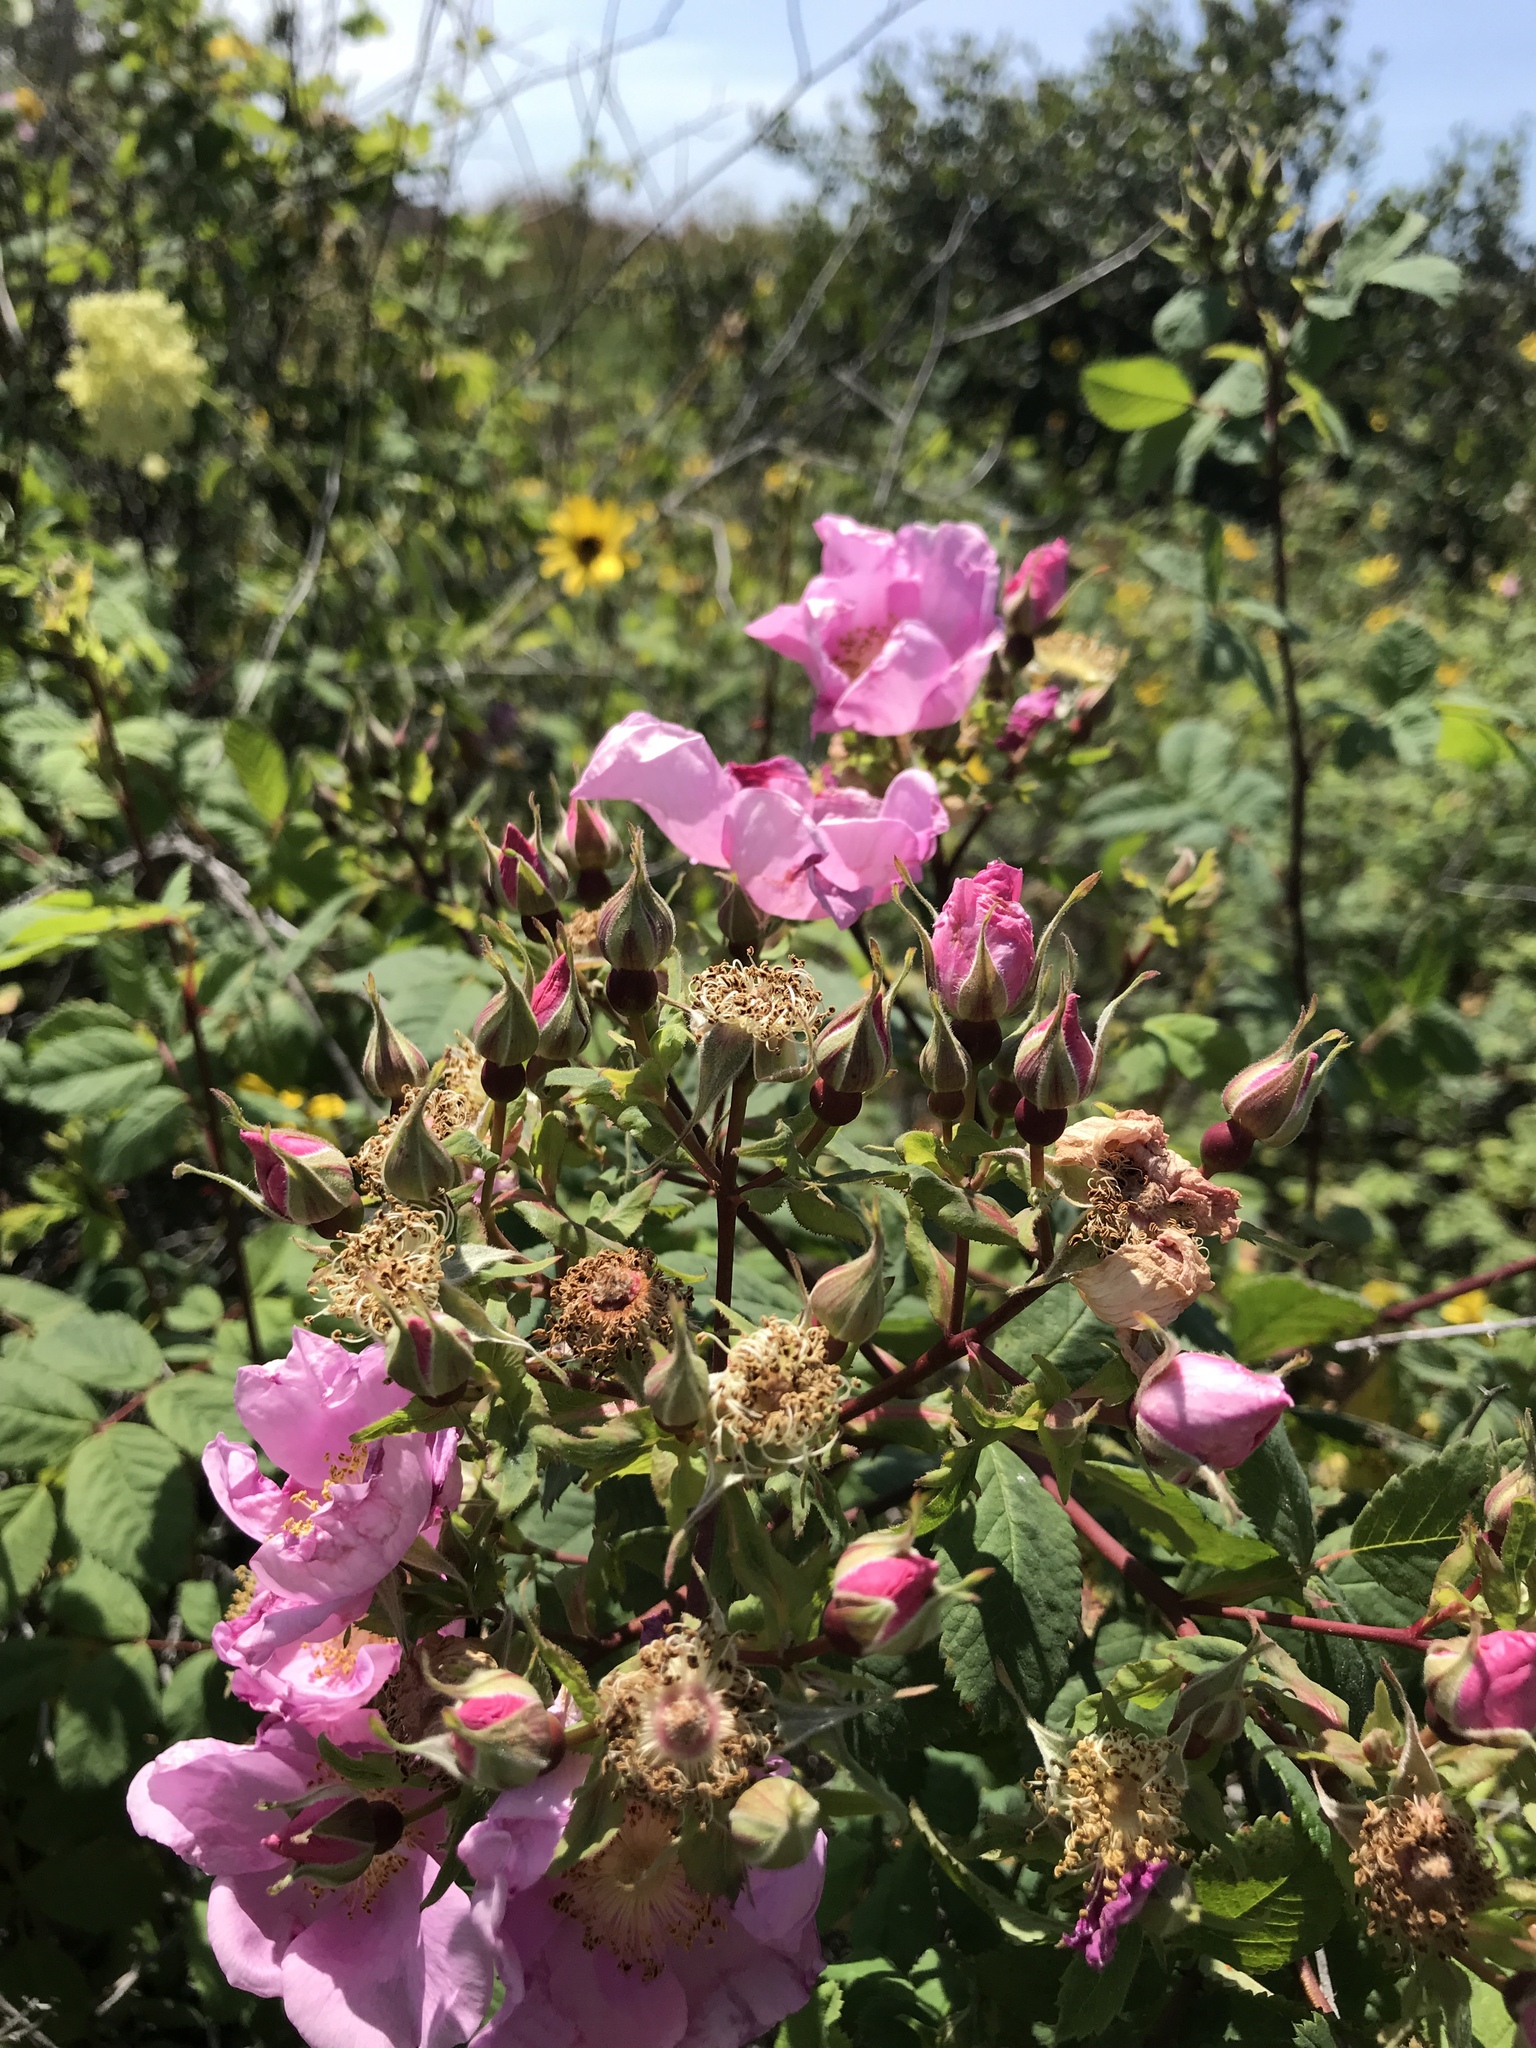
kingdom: Plantae
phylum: Tracheophyta
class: Magnoliopsida
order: Rosales
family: Rosaceae
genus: Rosa
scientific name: Rosa californica
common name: California rose
